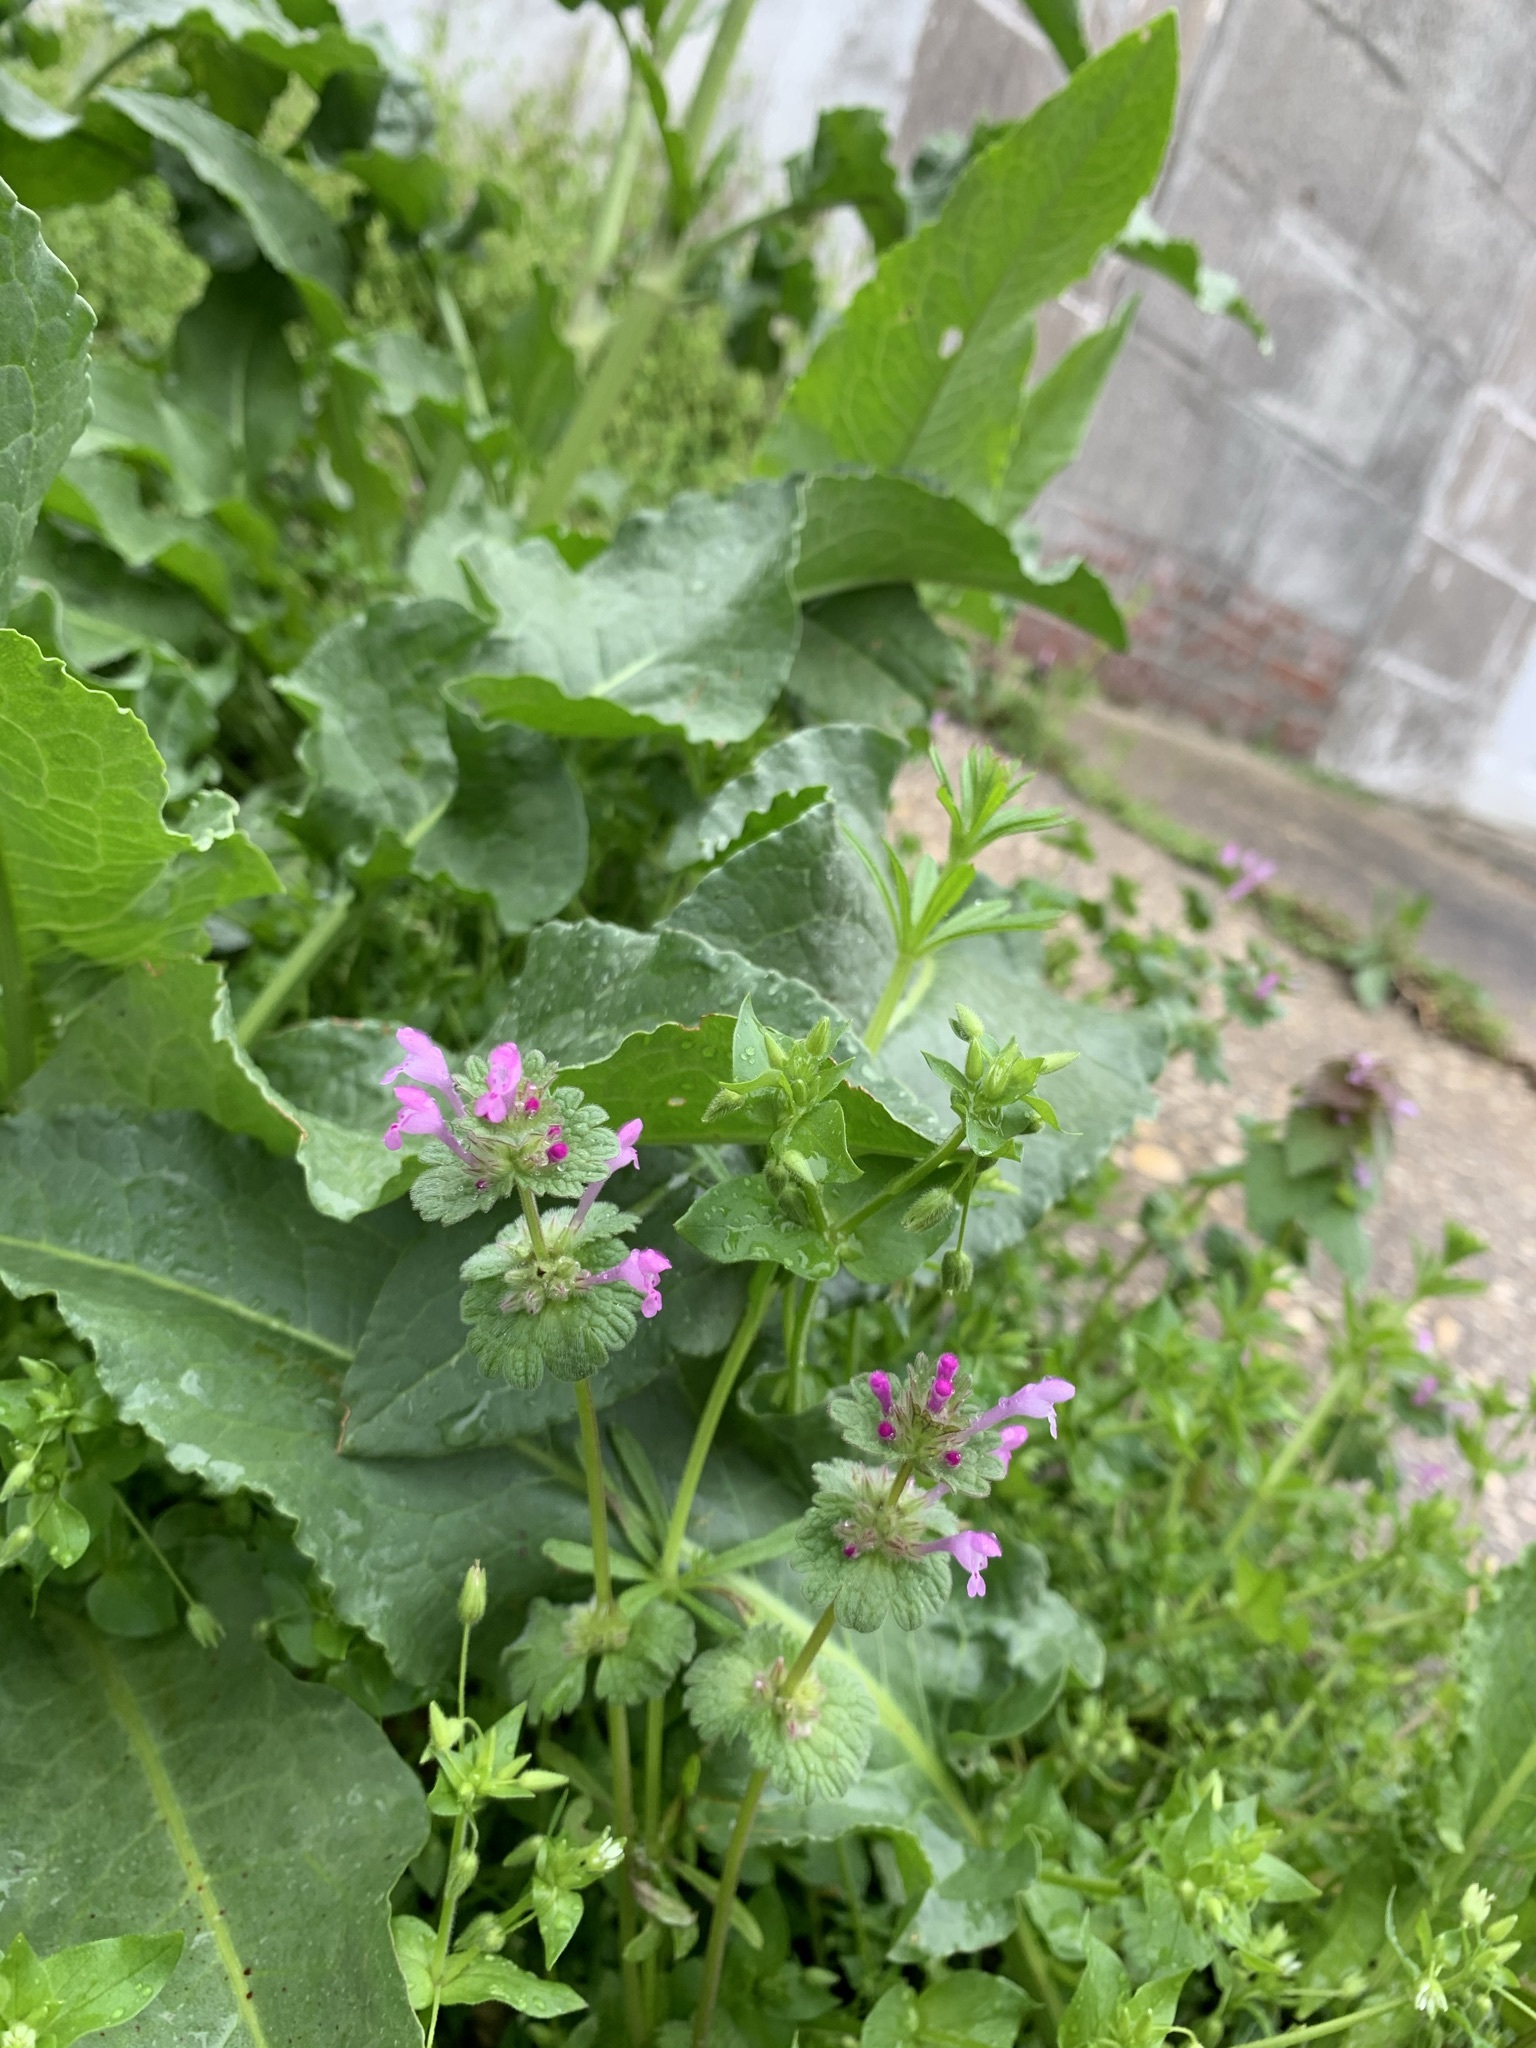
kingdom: Plantae
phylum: Tracheophyta
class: Magnoliopsida
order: Lamiales
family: Lamiaceae
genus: Lamium
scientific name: Lamium amplexicaule
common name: Henbit dead-nettle
